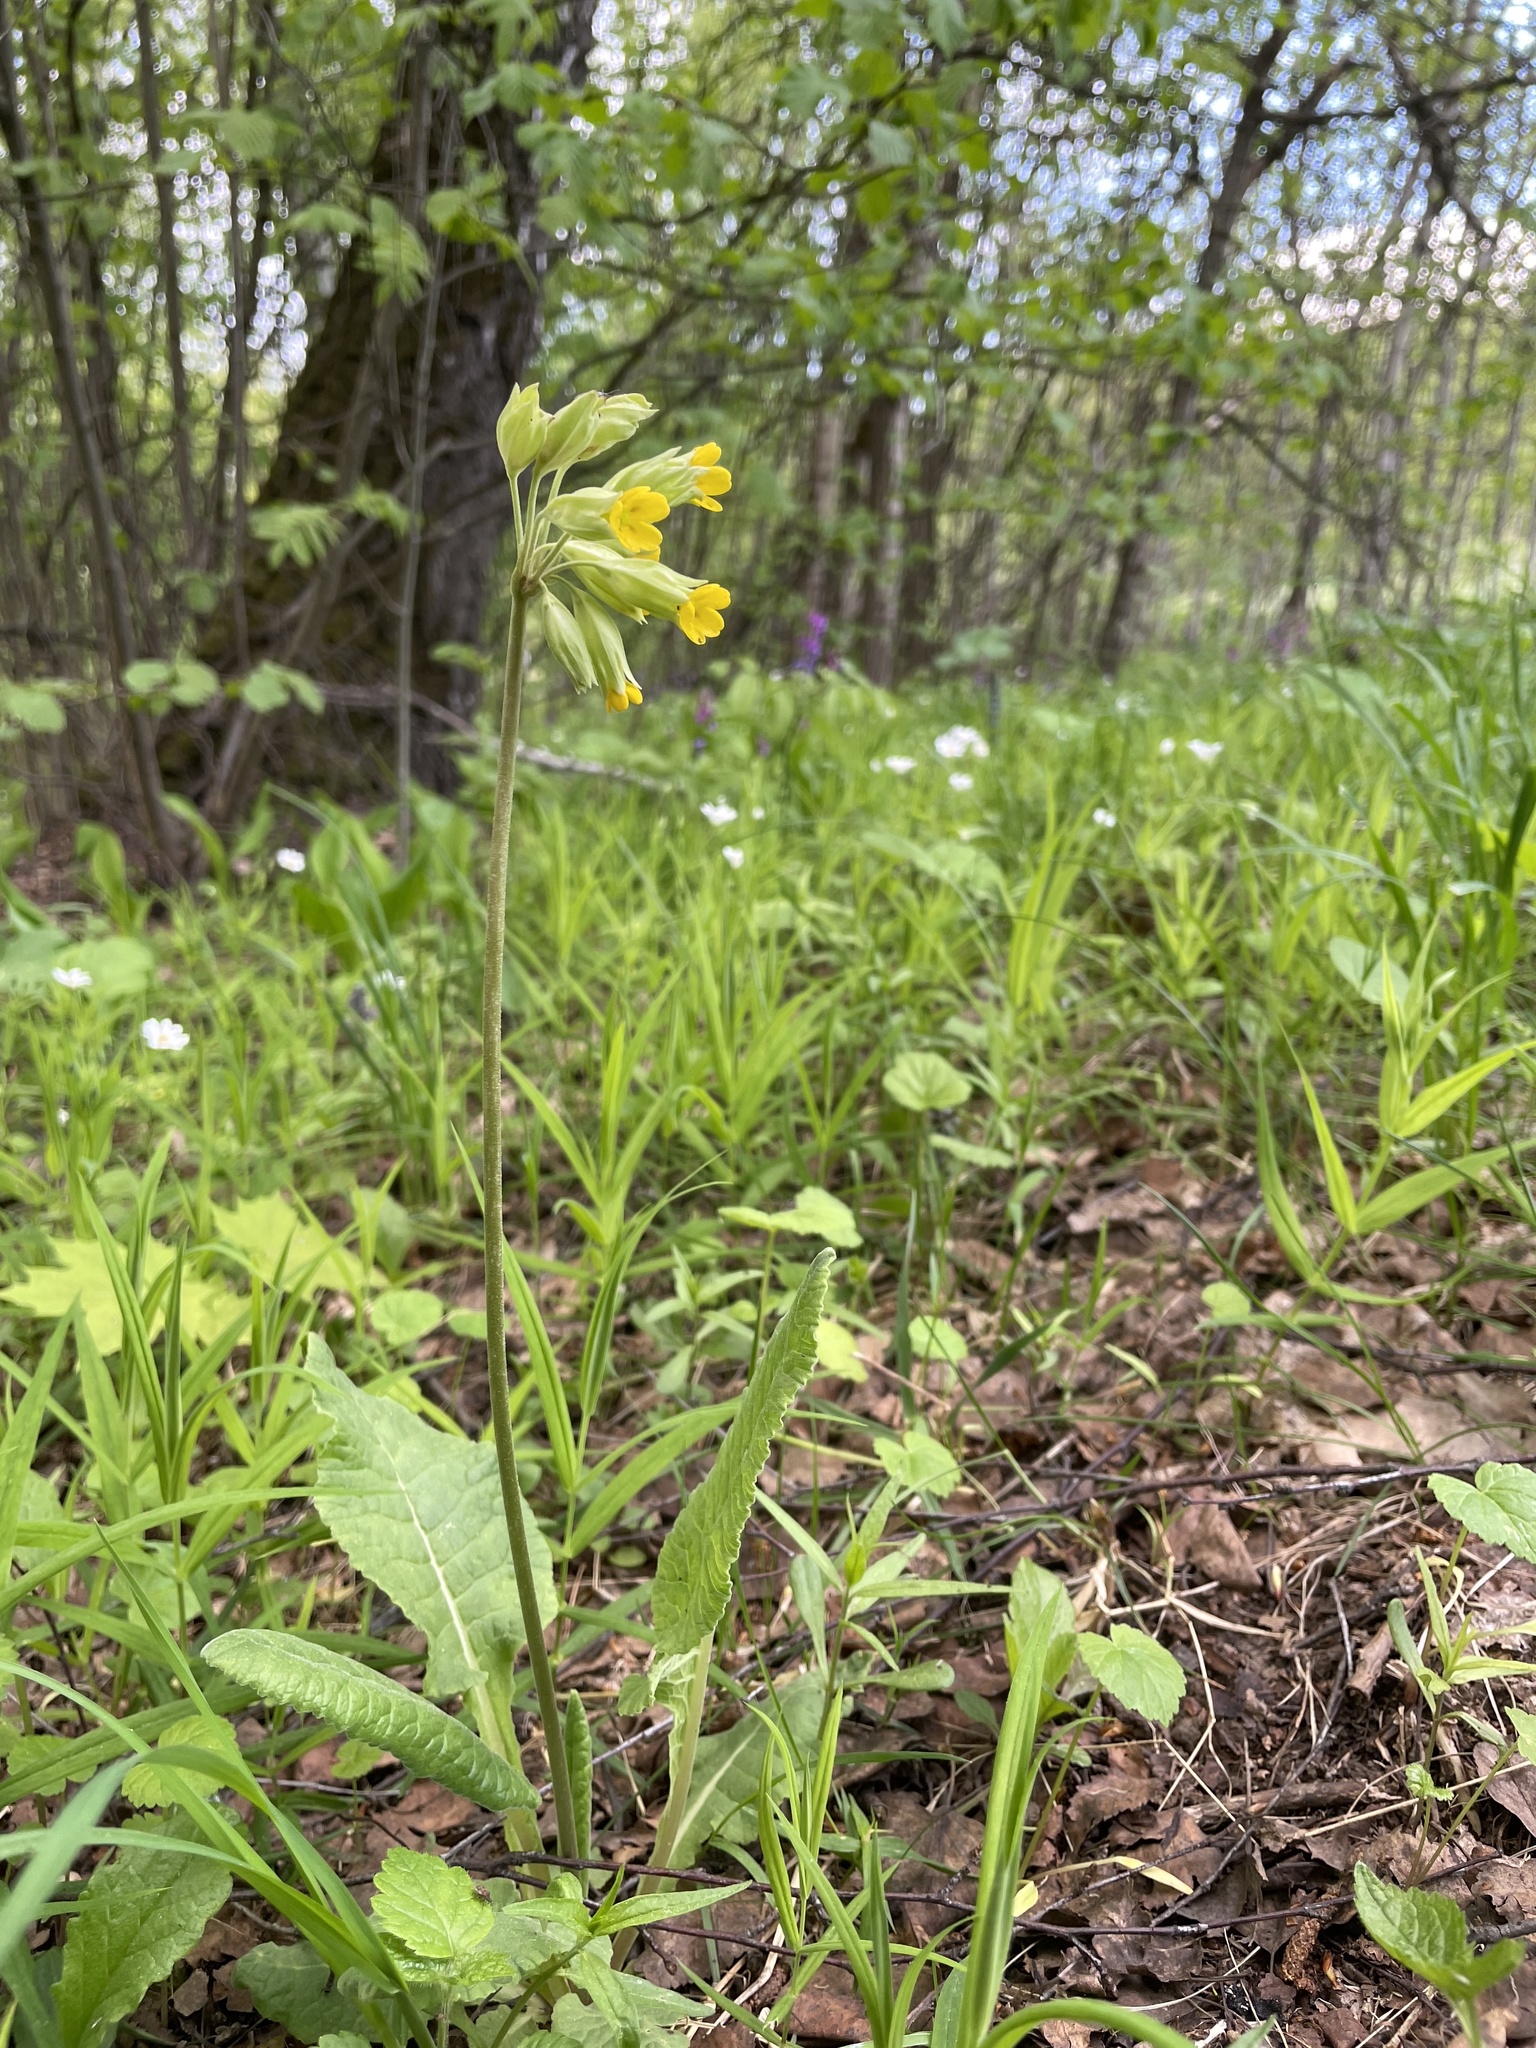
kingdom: Plantae
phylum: Tracheophyta
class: Magnoliopsida
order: Ericales
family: Primulaceae
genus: Primula
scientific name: Primula veris
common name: Cowslip
